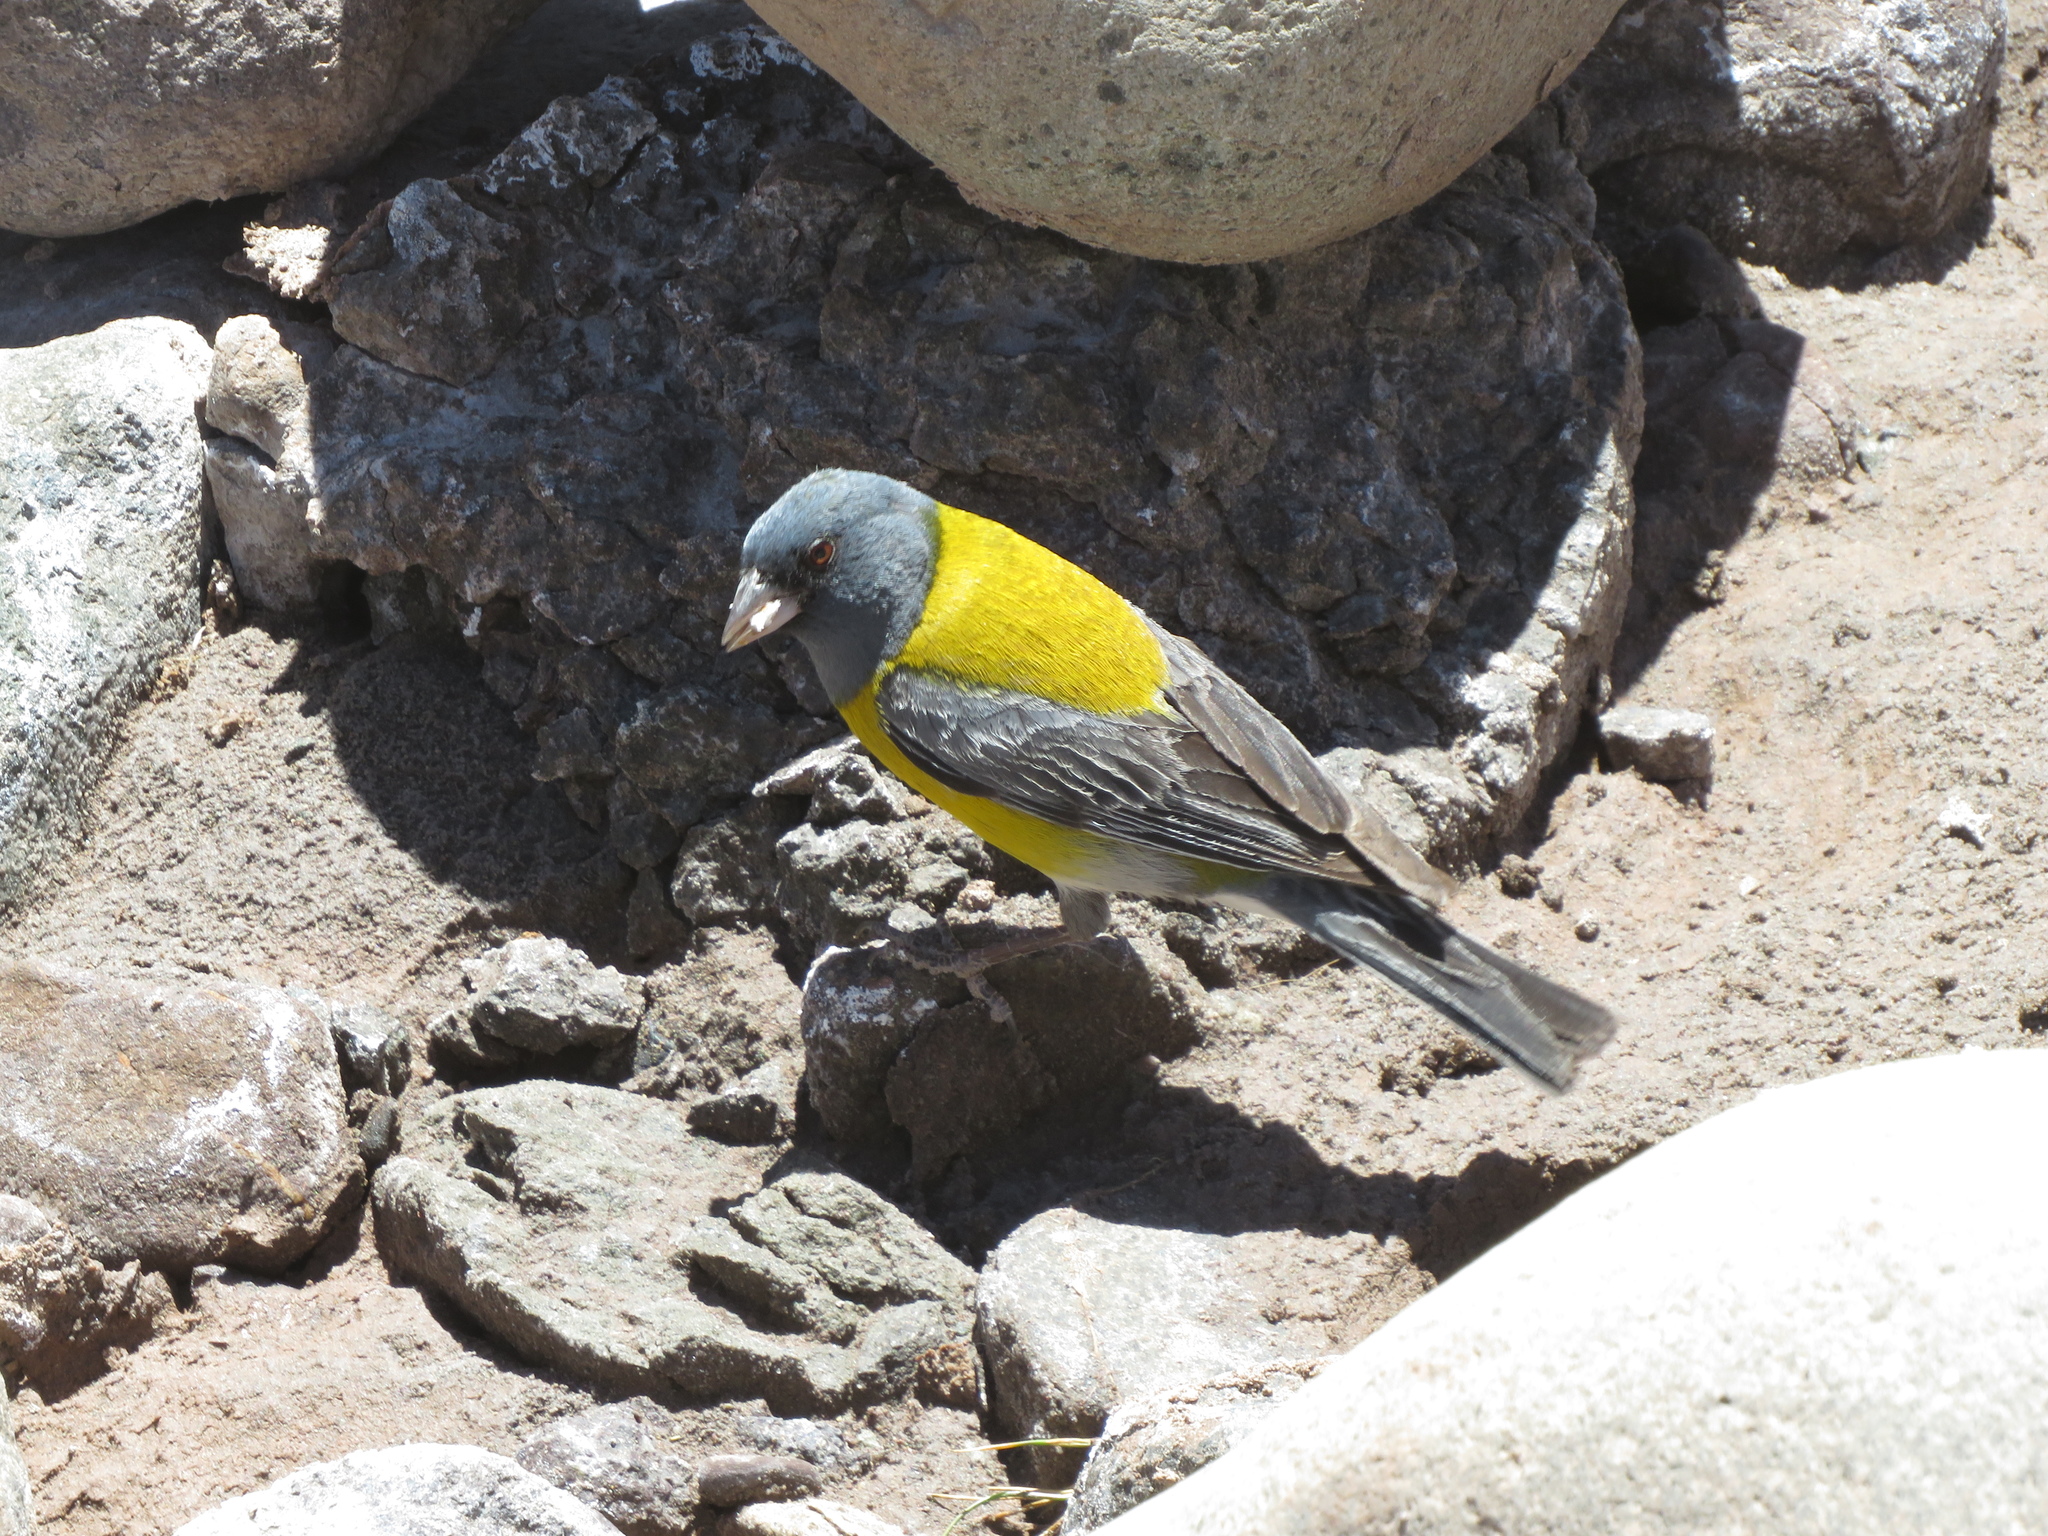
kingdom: Animalia
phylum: Chordata
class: Aves
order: Passeriformes
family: Thraupidae
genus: Phrygilus
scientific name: Phrygilus gayi
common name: Grey-hooded sierra finch
